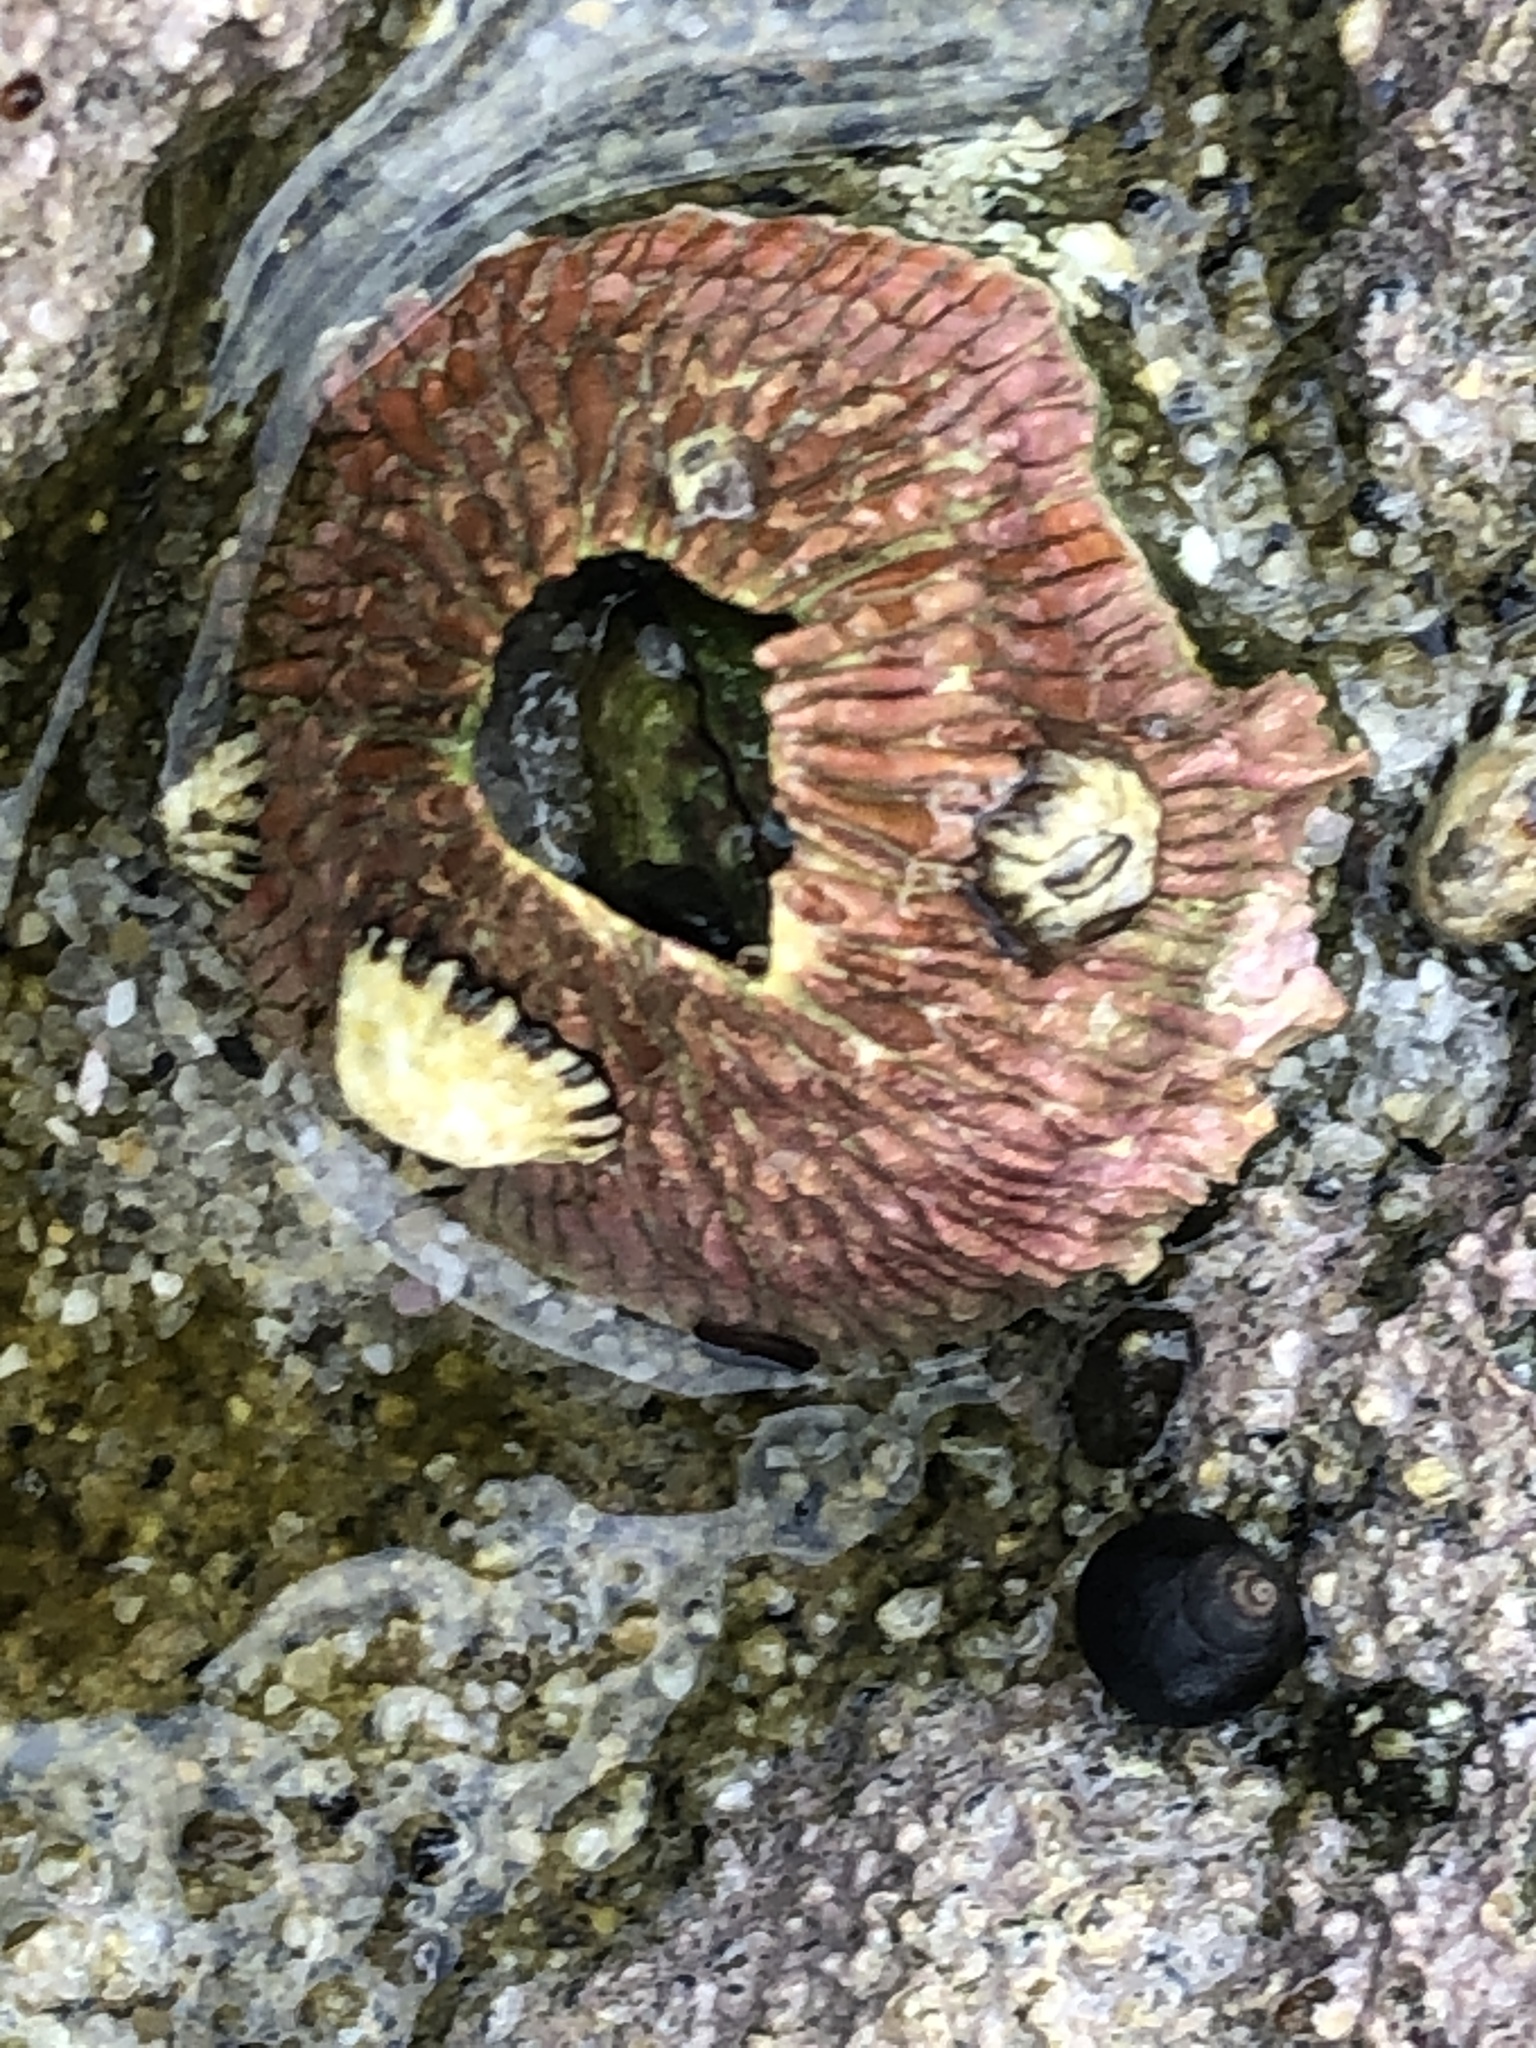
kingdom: Animalia
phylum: Arthropoda
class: Maxillopoda
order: Sessilia
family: Tetraclitidae
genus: Tetraclita
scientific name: Tetraclita rubescens
